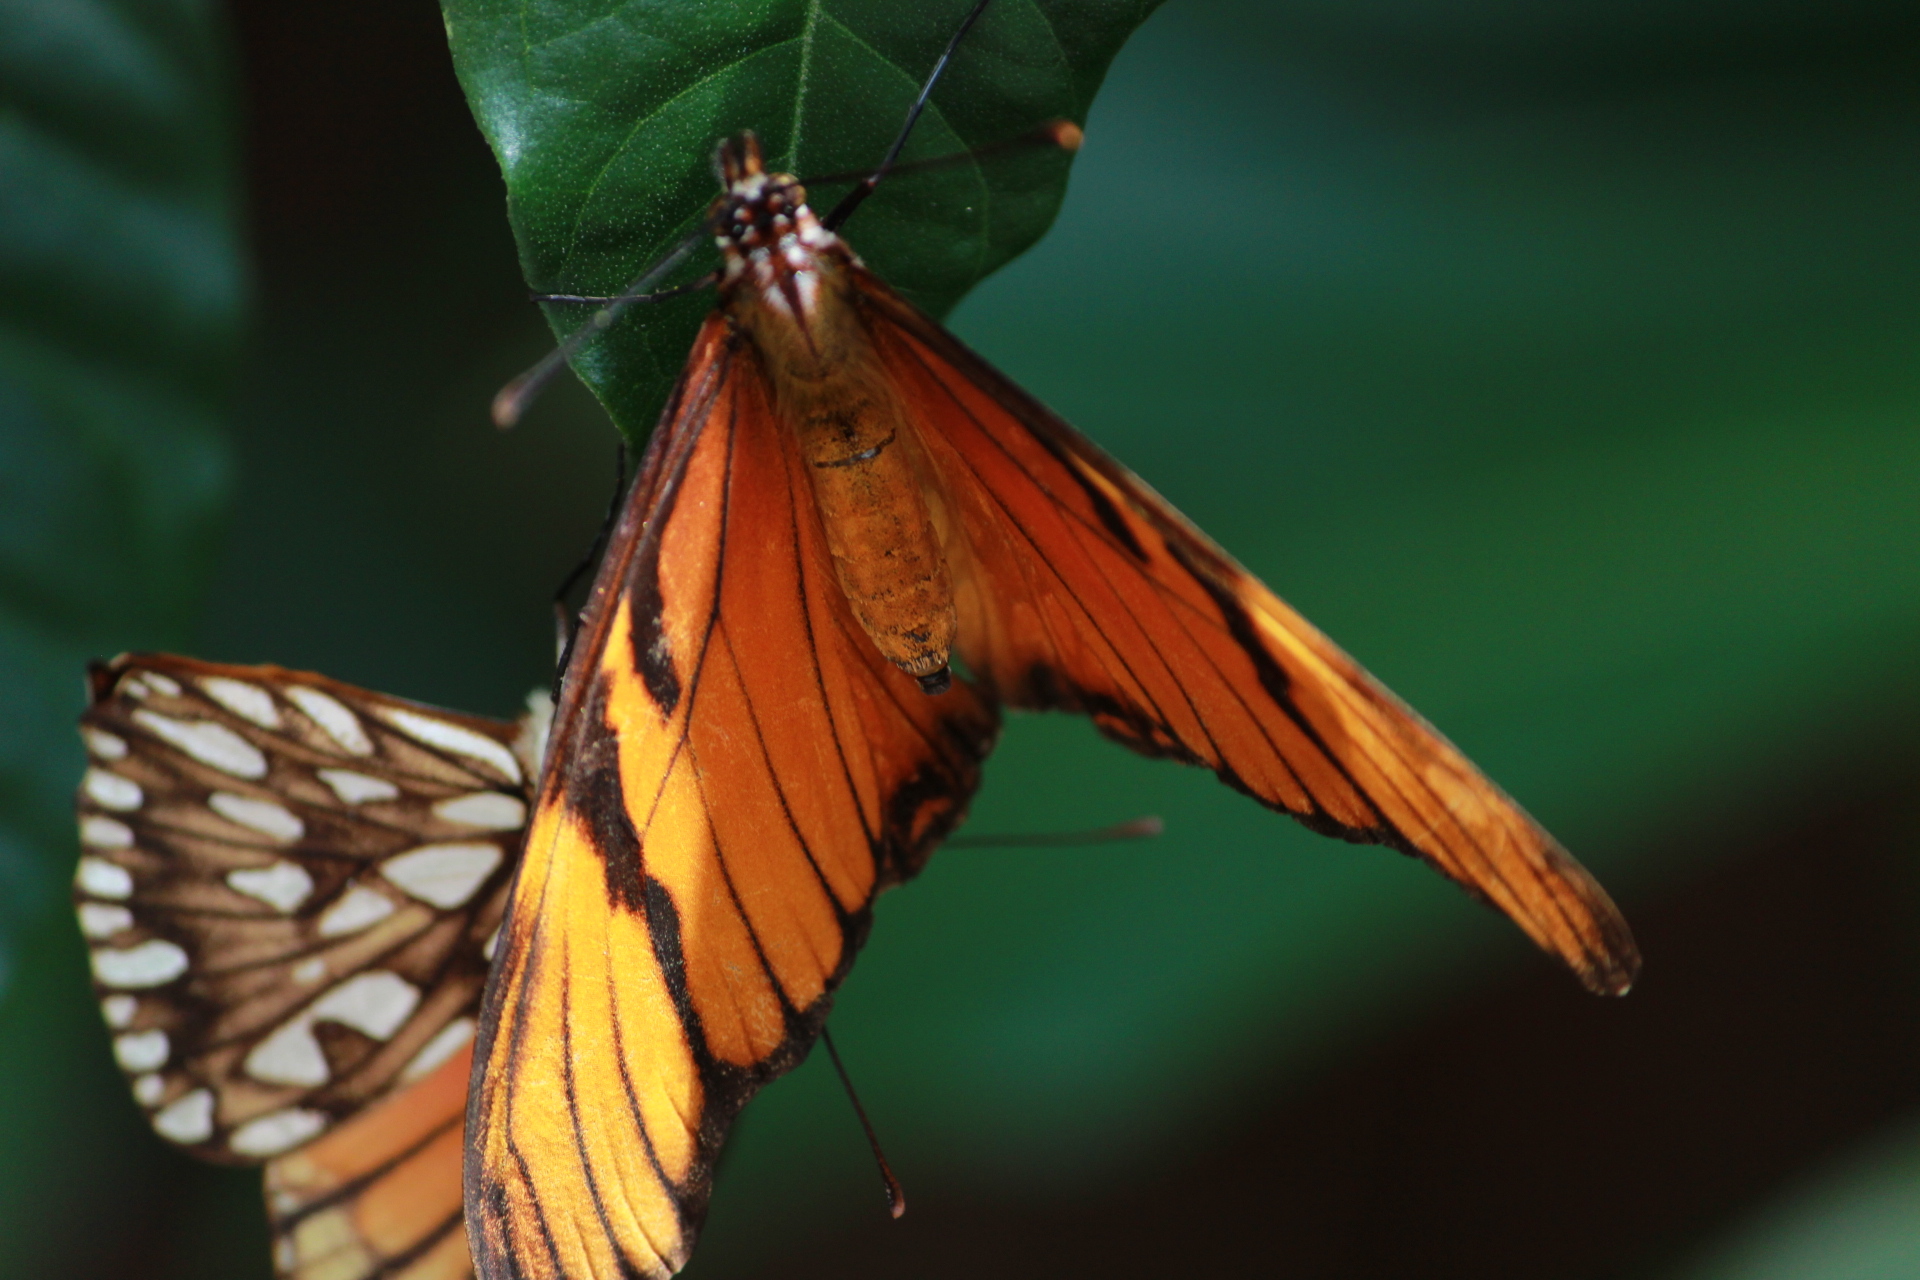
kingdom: Animalia
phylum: Arthropoda
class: Insecta
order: Lepidoptera
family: Nymphalidae
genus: Dione
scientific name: Dione juno
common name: Juno silverspot
